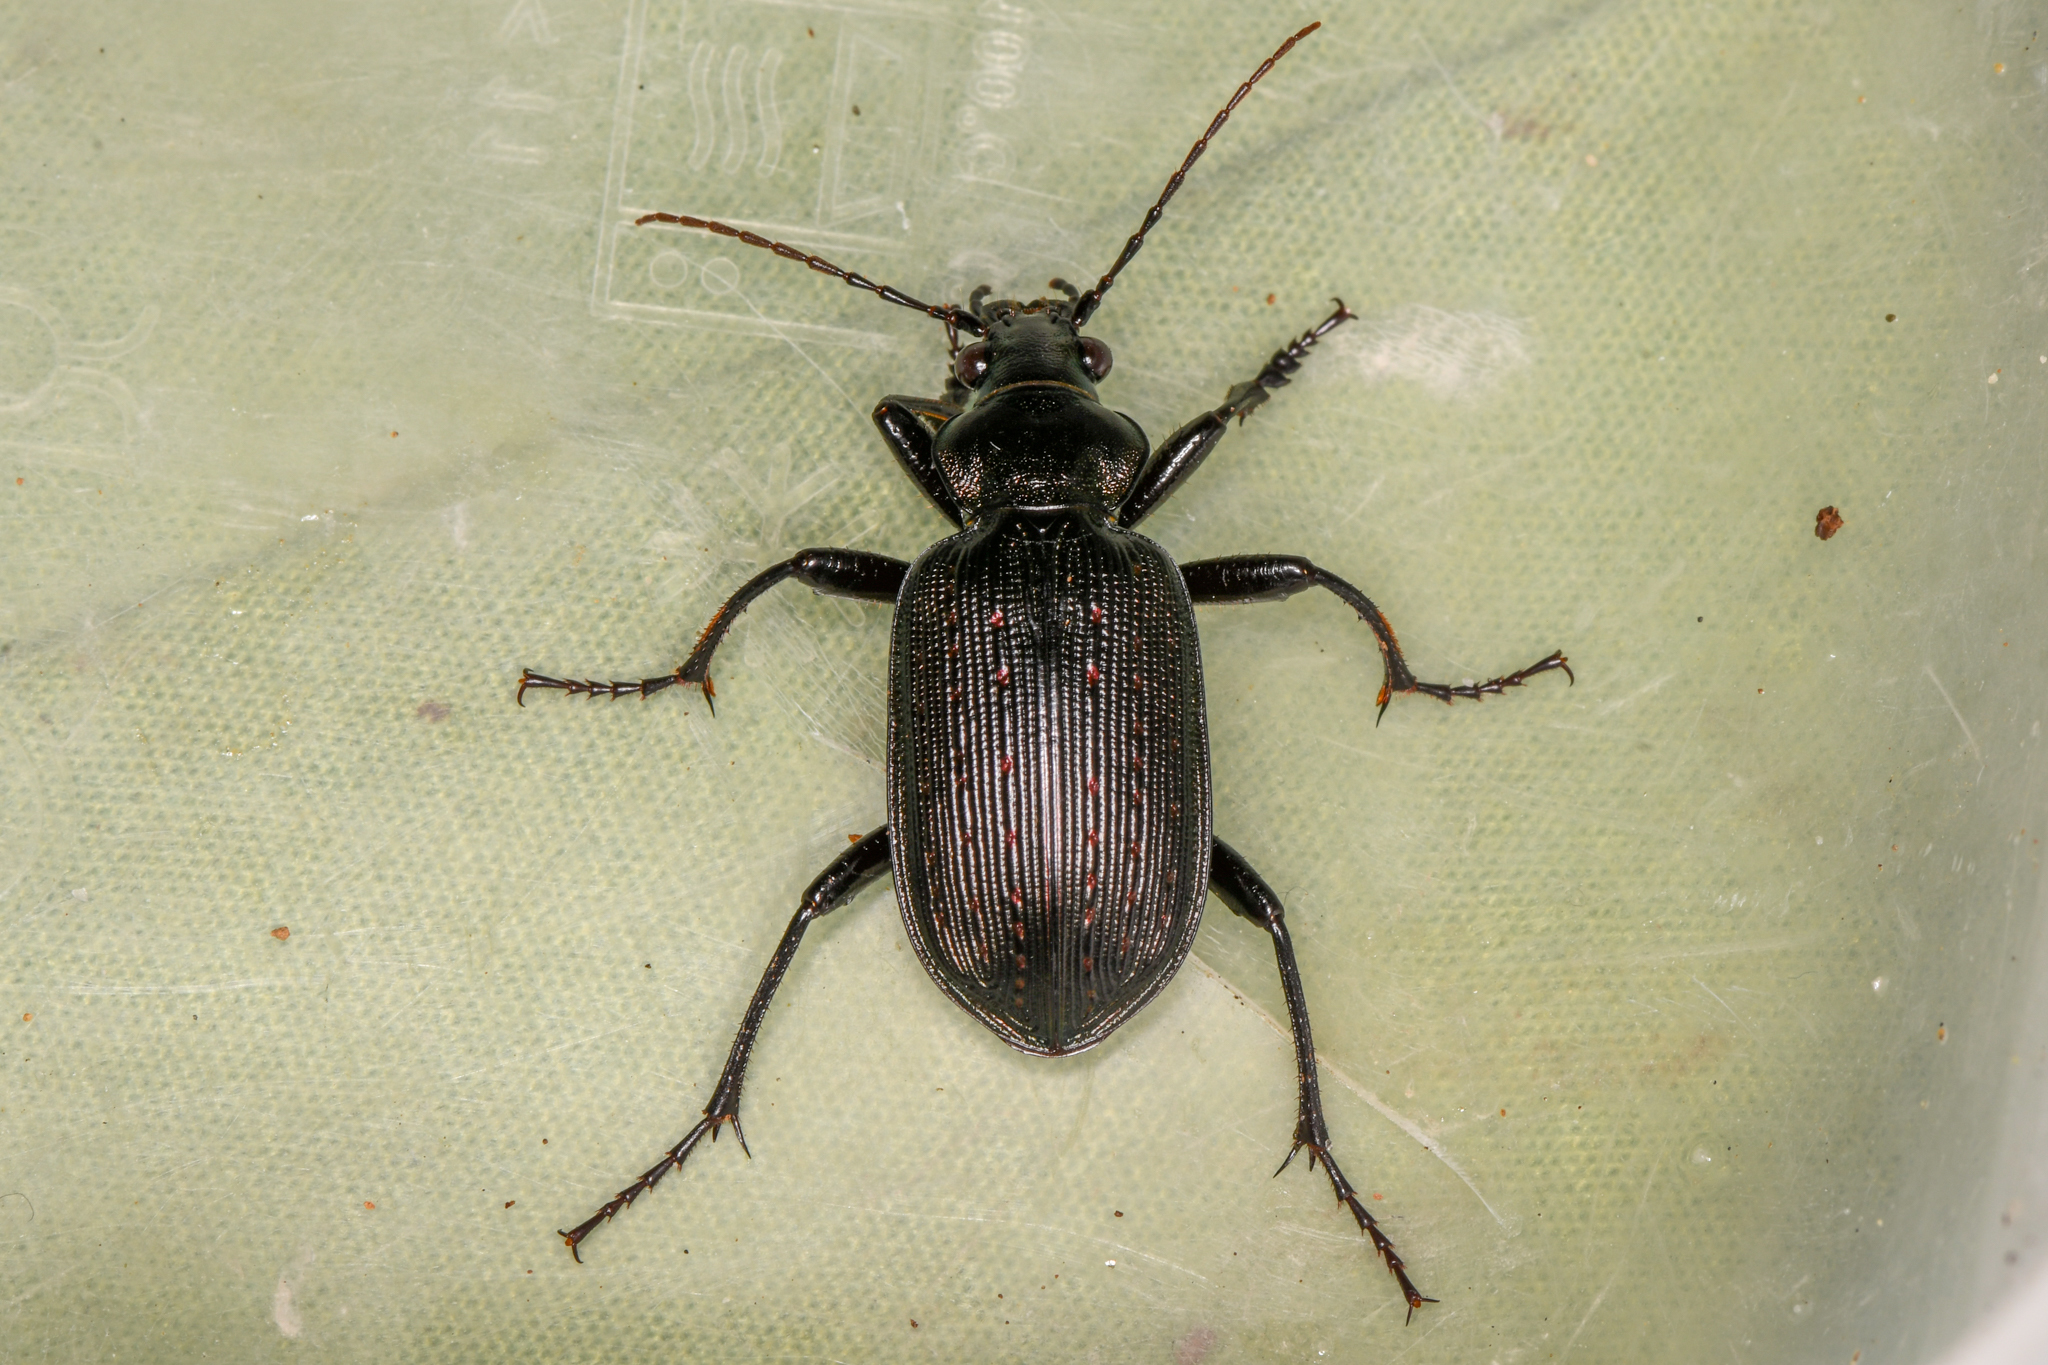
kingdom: Animalia
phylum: Arthropoda
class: Insecta
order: Coleoptera
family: Carabidae
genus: Calosoma
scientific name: Calosoma sayi
